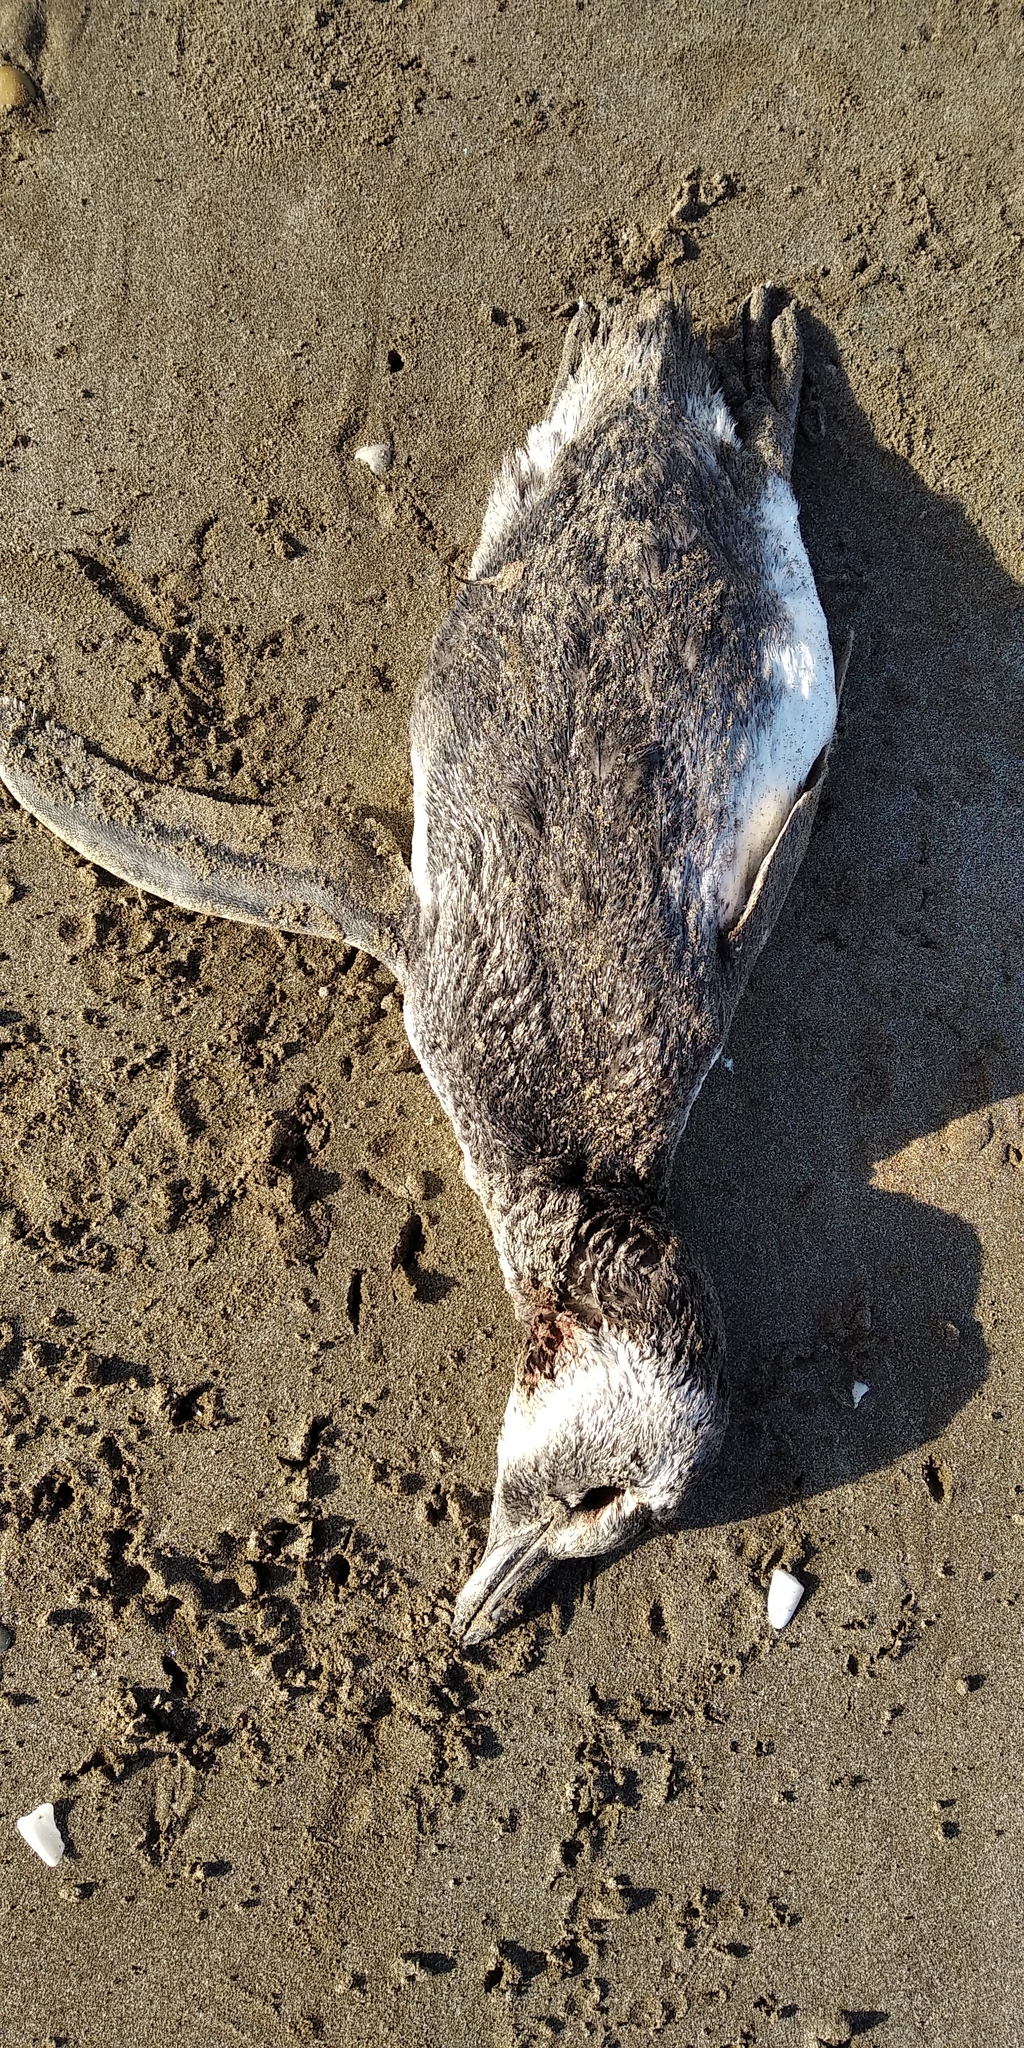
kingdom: Animalia
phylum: Chordata
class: Aves
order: Sphenisciformes
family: Spheniscidae
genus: Spheniscus
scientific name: Spheniscus magellanicus
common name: Magellanic penguin
